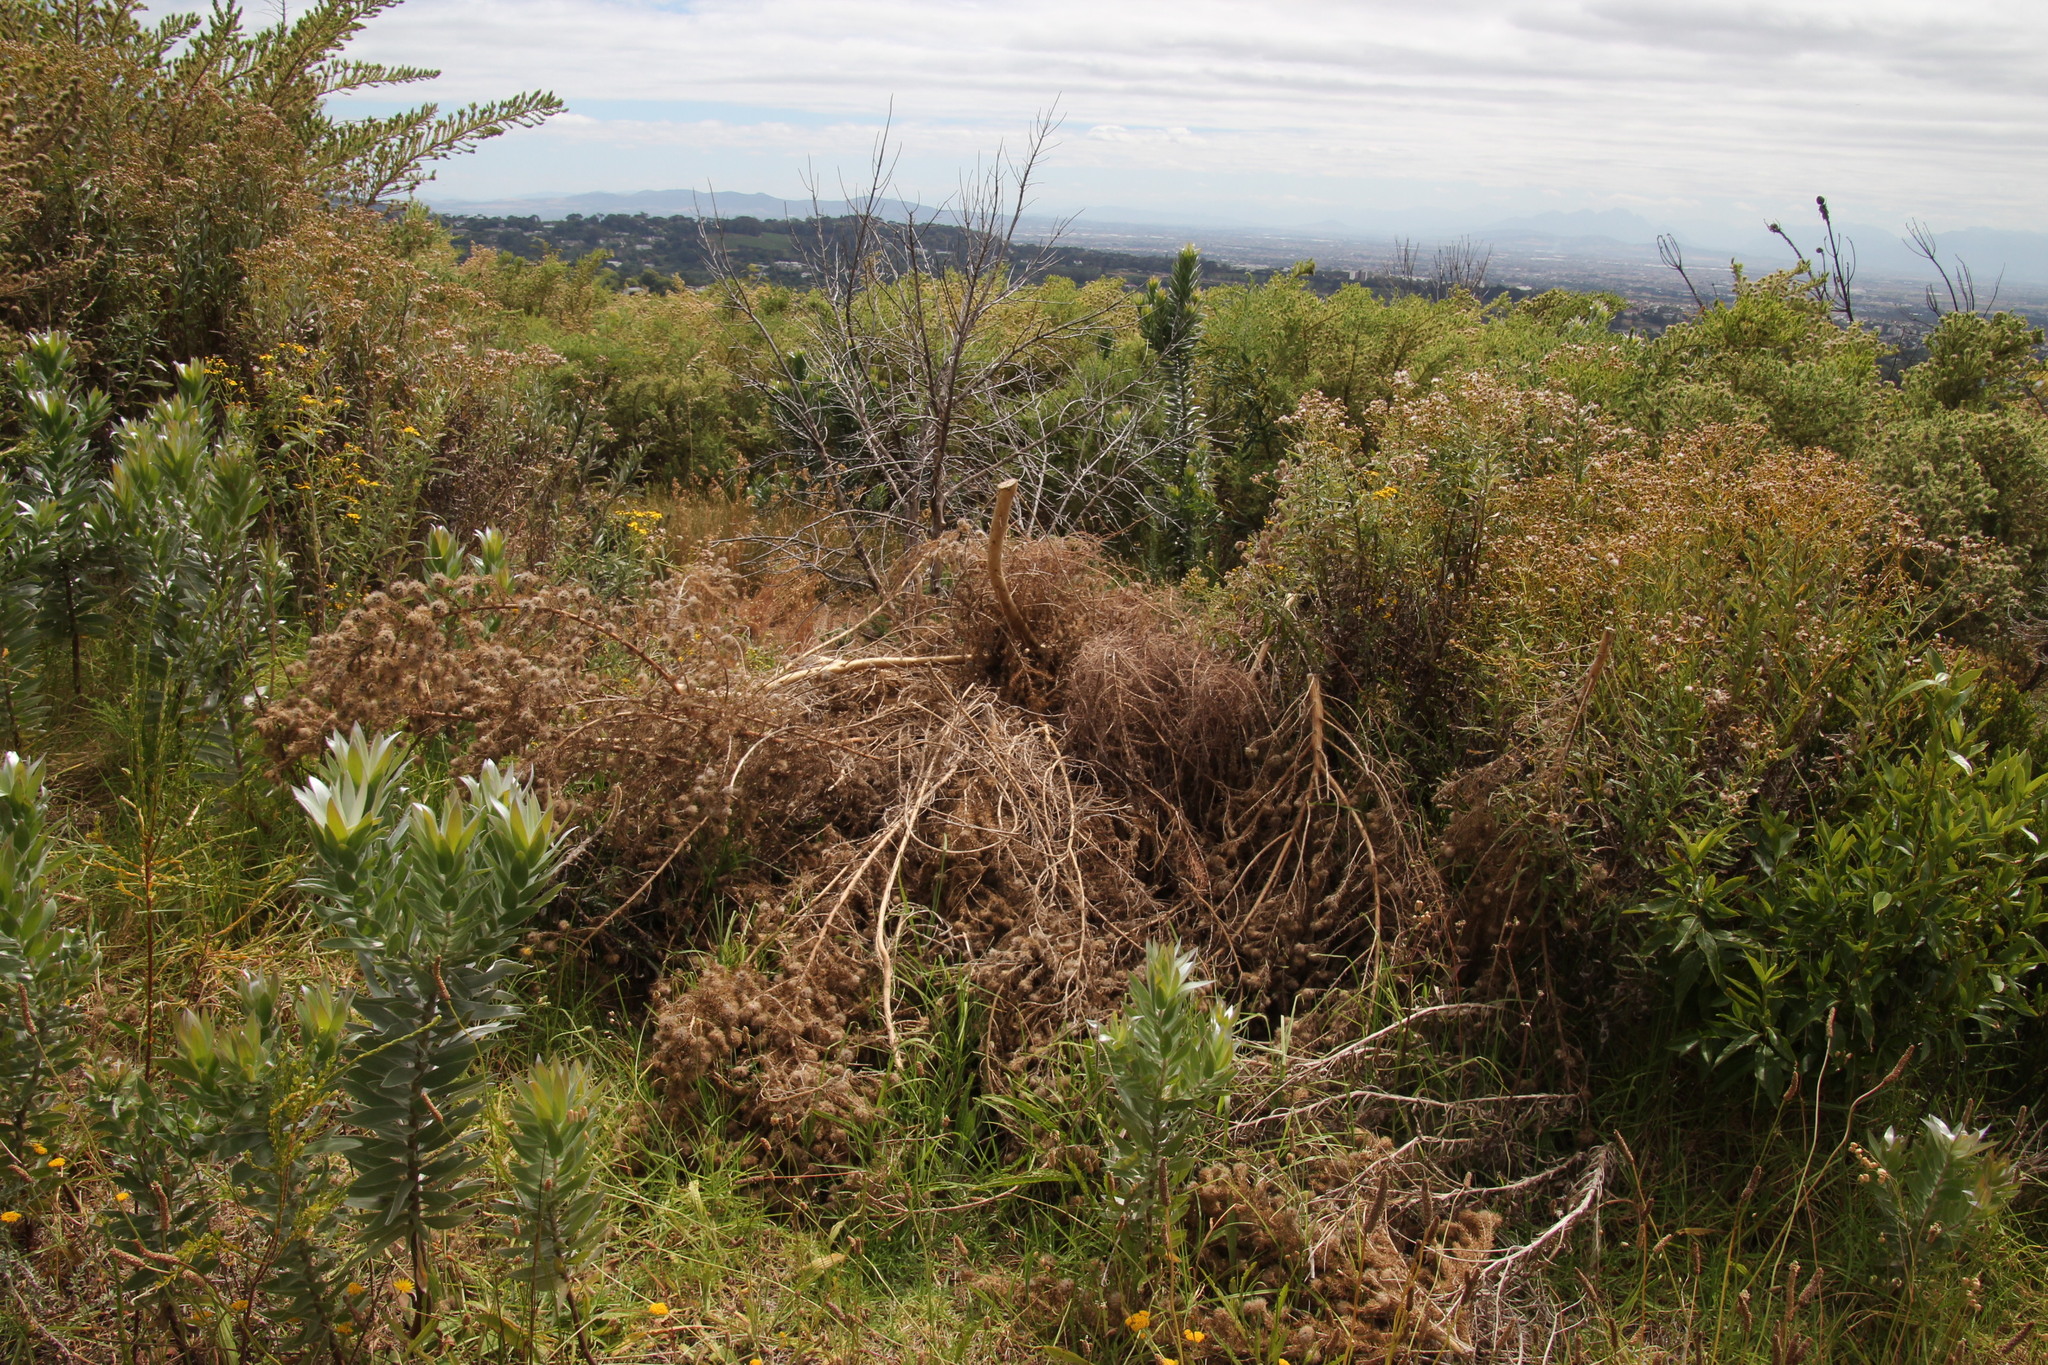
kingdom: Plantae
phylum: Tracheophyta
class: Magnoliopsida
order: Fabales
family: Fabaceae
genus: Aspalathus
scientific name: Aspalathus chenopoda
